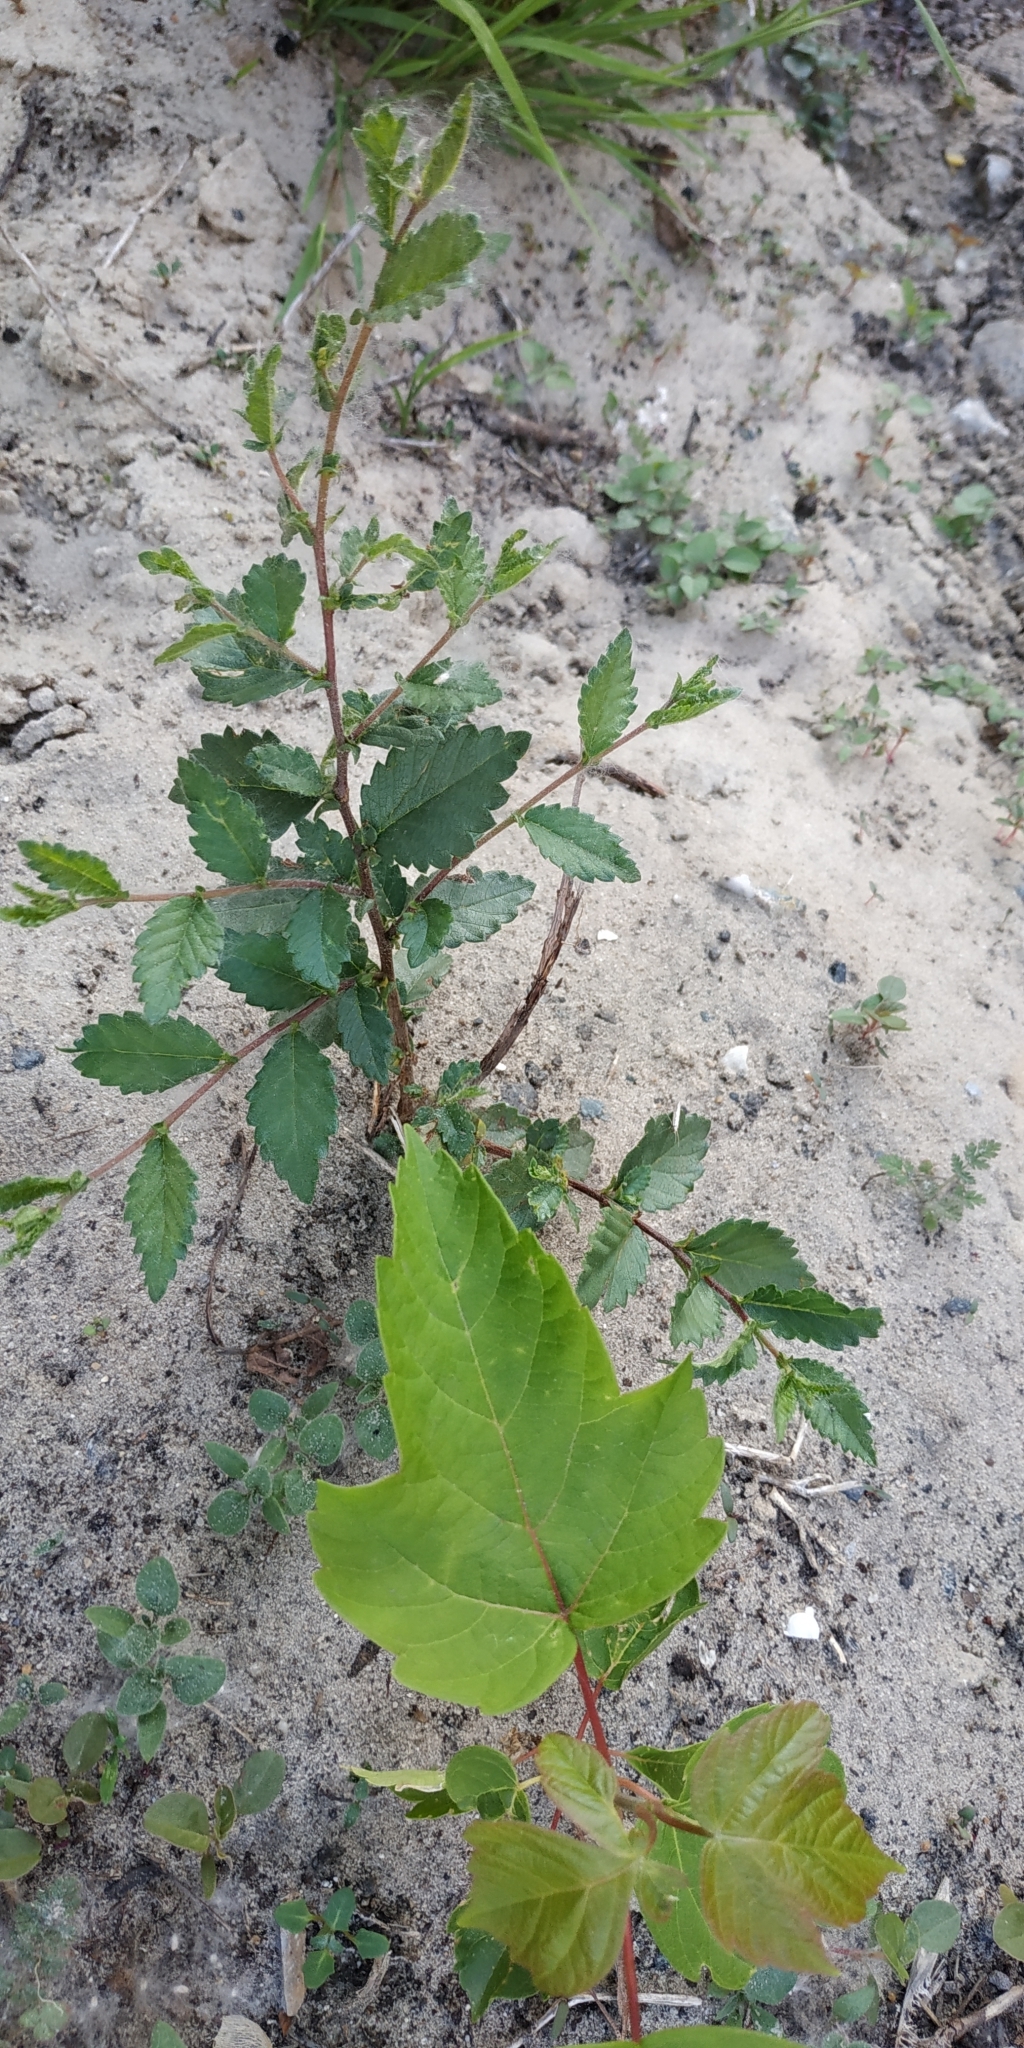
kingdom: Plantae
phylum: Tracheophyta
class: Magnoliopsida
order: Rosales
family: Ulmaceae
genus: Ulmus
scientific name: Ulmus pumila
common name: Siberian elm
